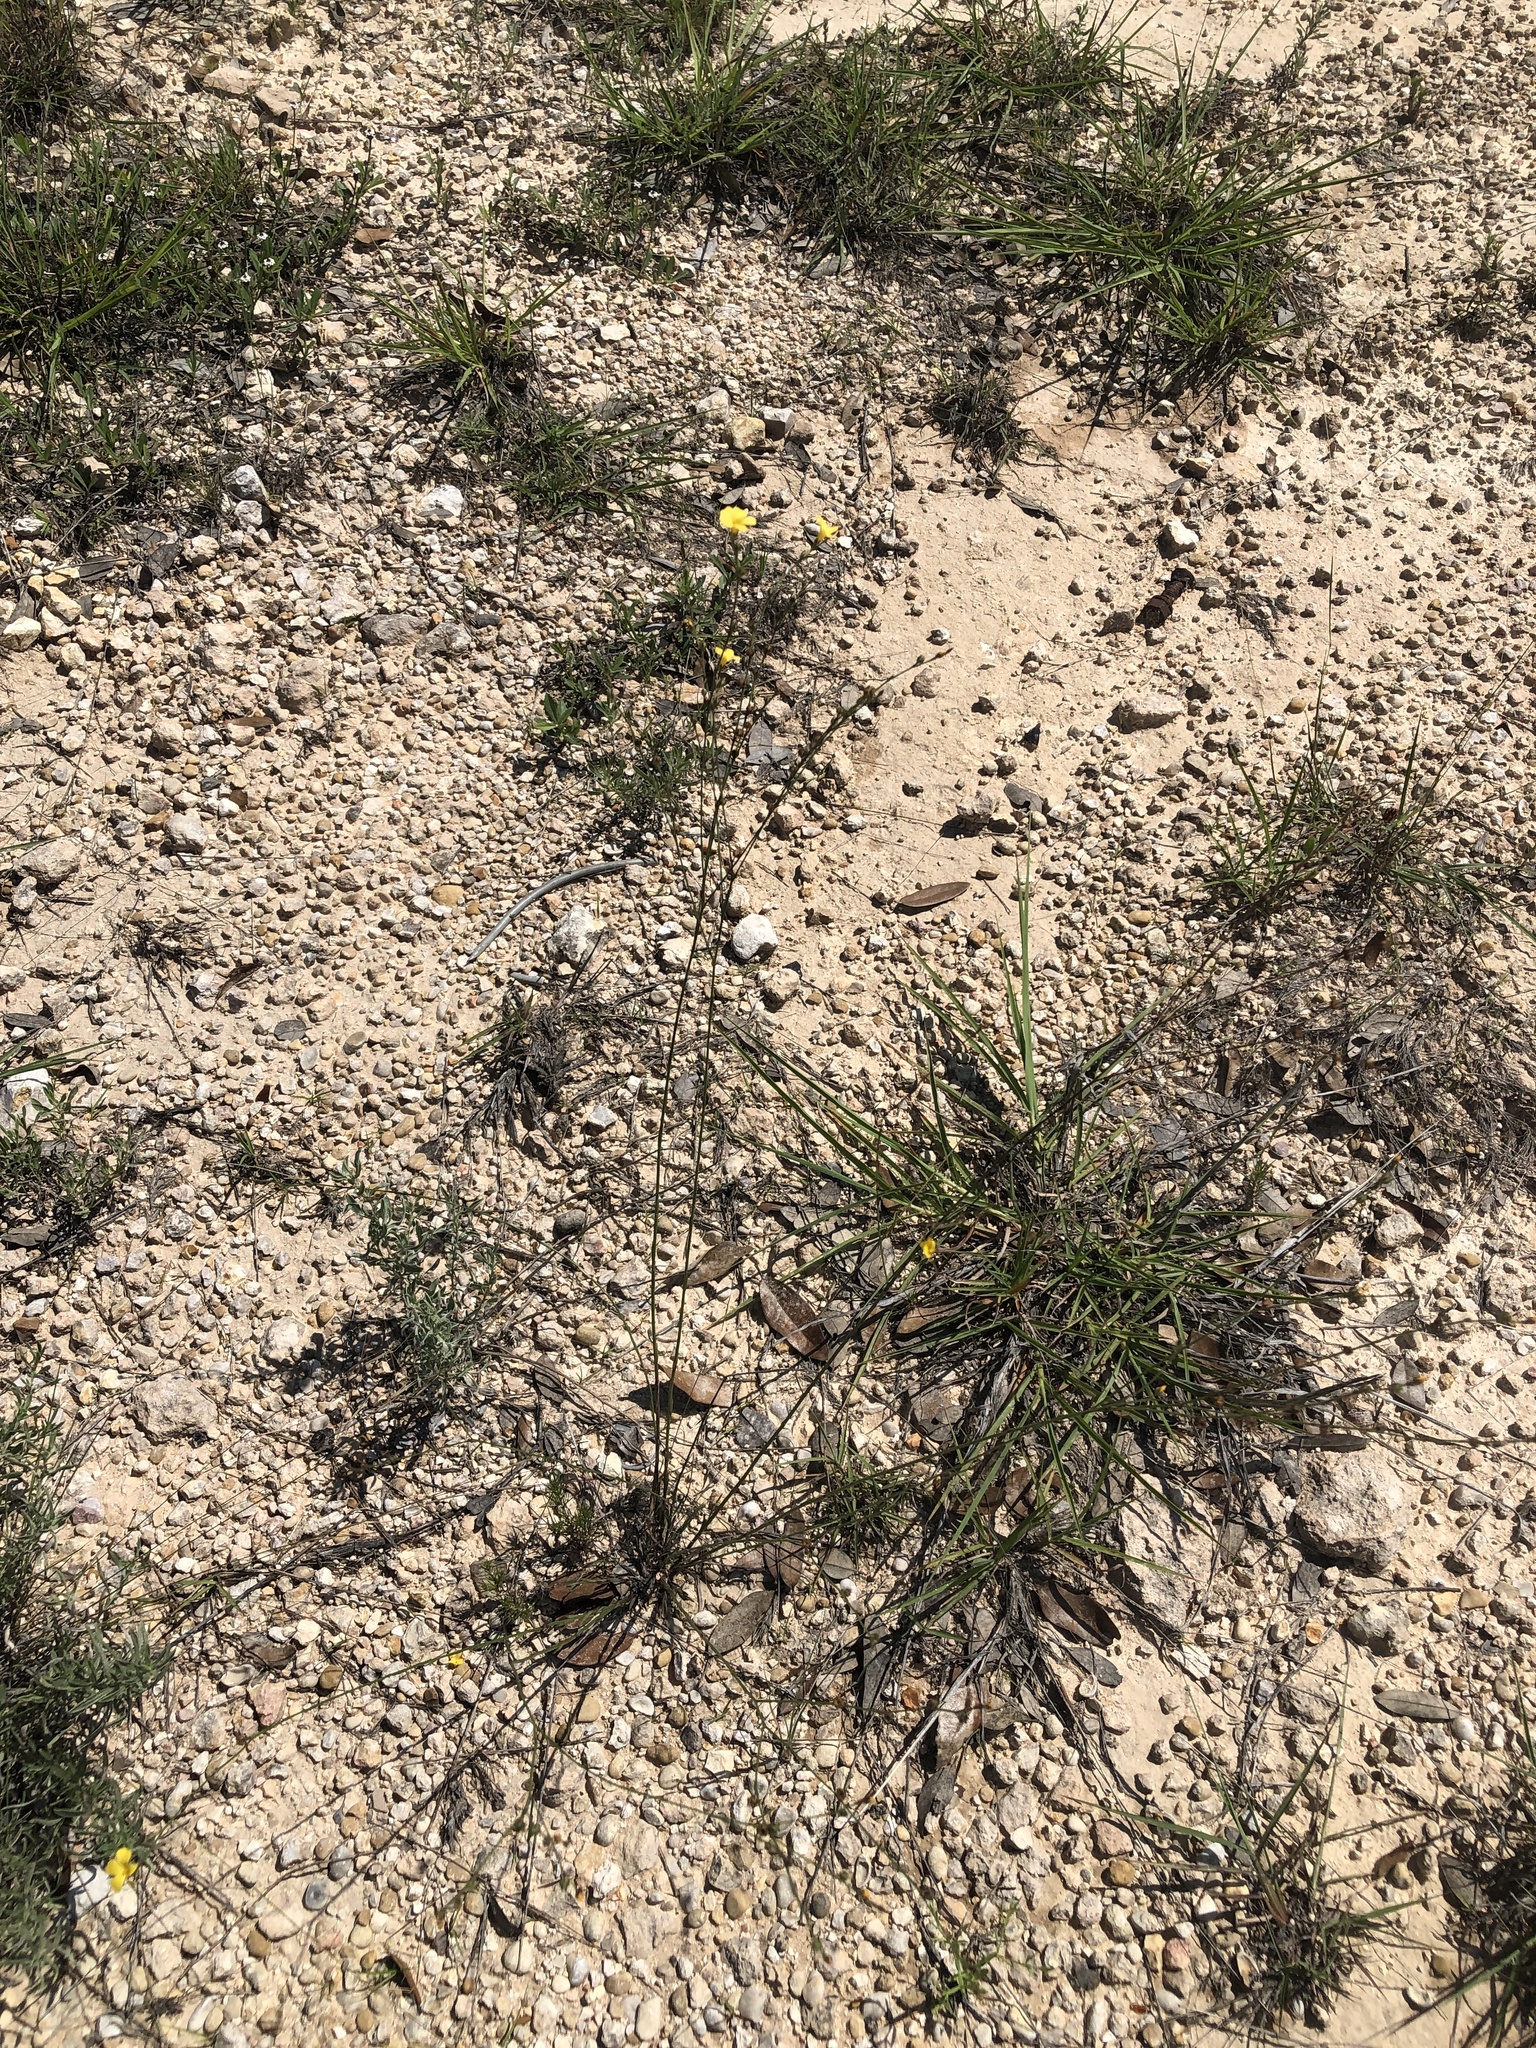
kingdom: Plantae
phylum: Tracheophyta
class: Magnoliopsida
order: Malpighiales
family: Linaceae
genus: Linum
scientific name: Linum rupestre
